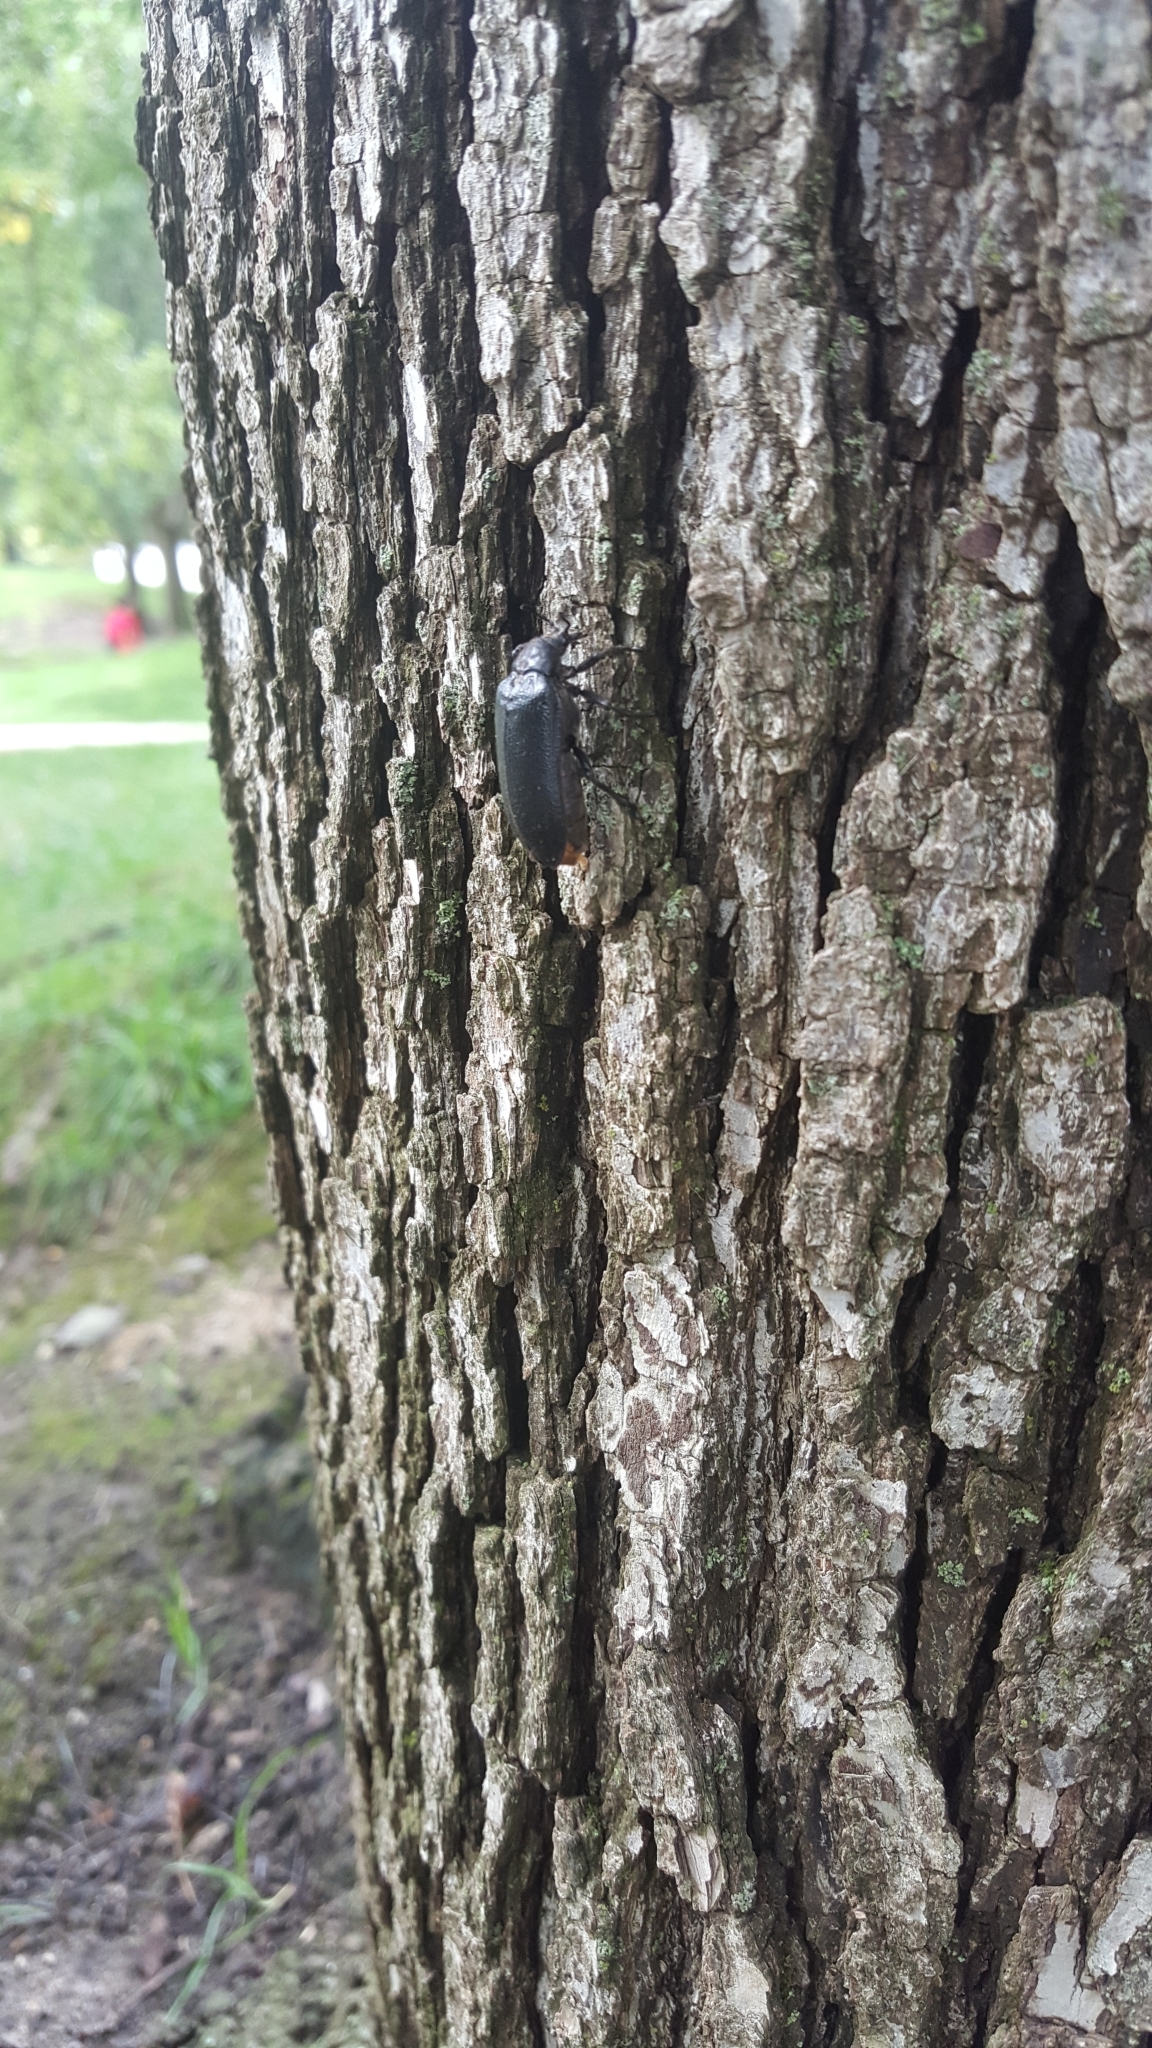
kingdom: Animalia
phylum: Arthropoda
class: Insecta
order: Coleoptera
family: Rhipiceridae
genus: Sandalus
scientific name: Sandalus niger
